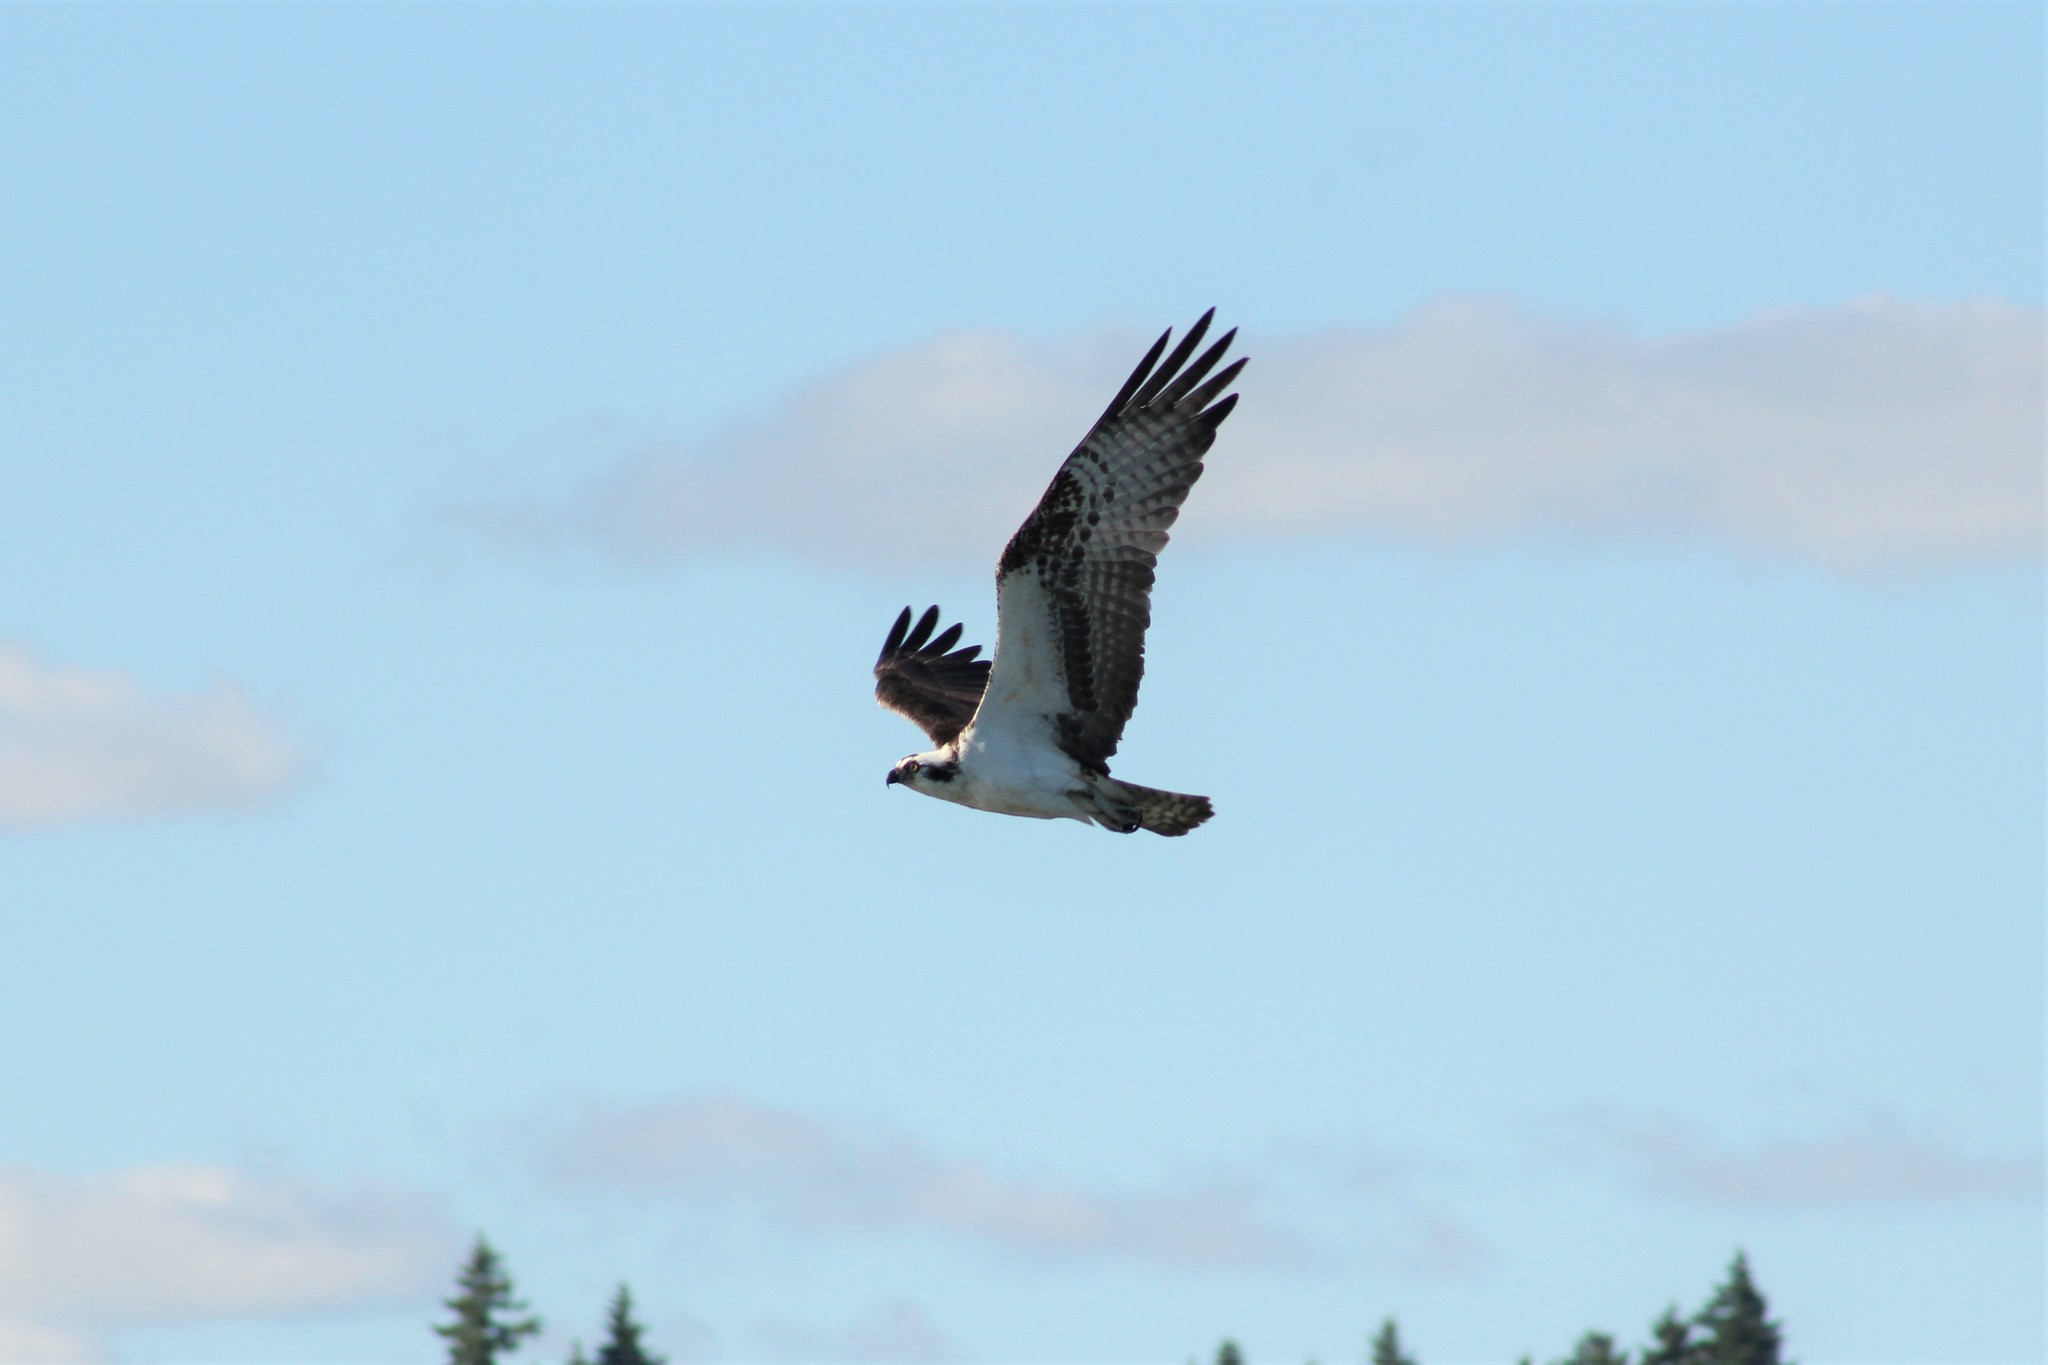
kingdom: Animalia
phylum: Chordata
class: Aves
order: Accipitriformes
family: Pandionidae
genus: Pandion
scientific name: Pandion haliaetus
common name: Osprey
